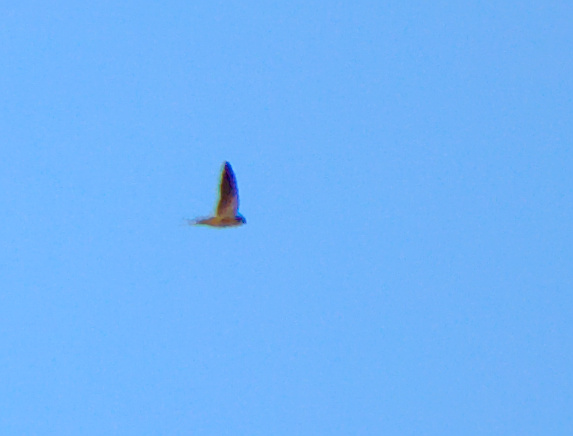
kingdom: Animalia
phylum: Chordata
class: Aves
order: Passeriformes
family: Hirundinidae
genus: Hirundo
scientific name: Hirundo rustica
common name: Barn swallow
